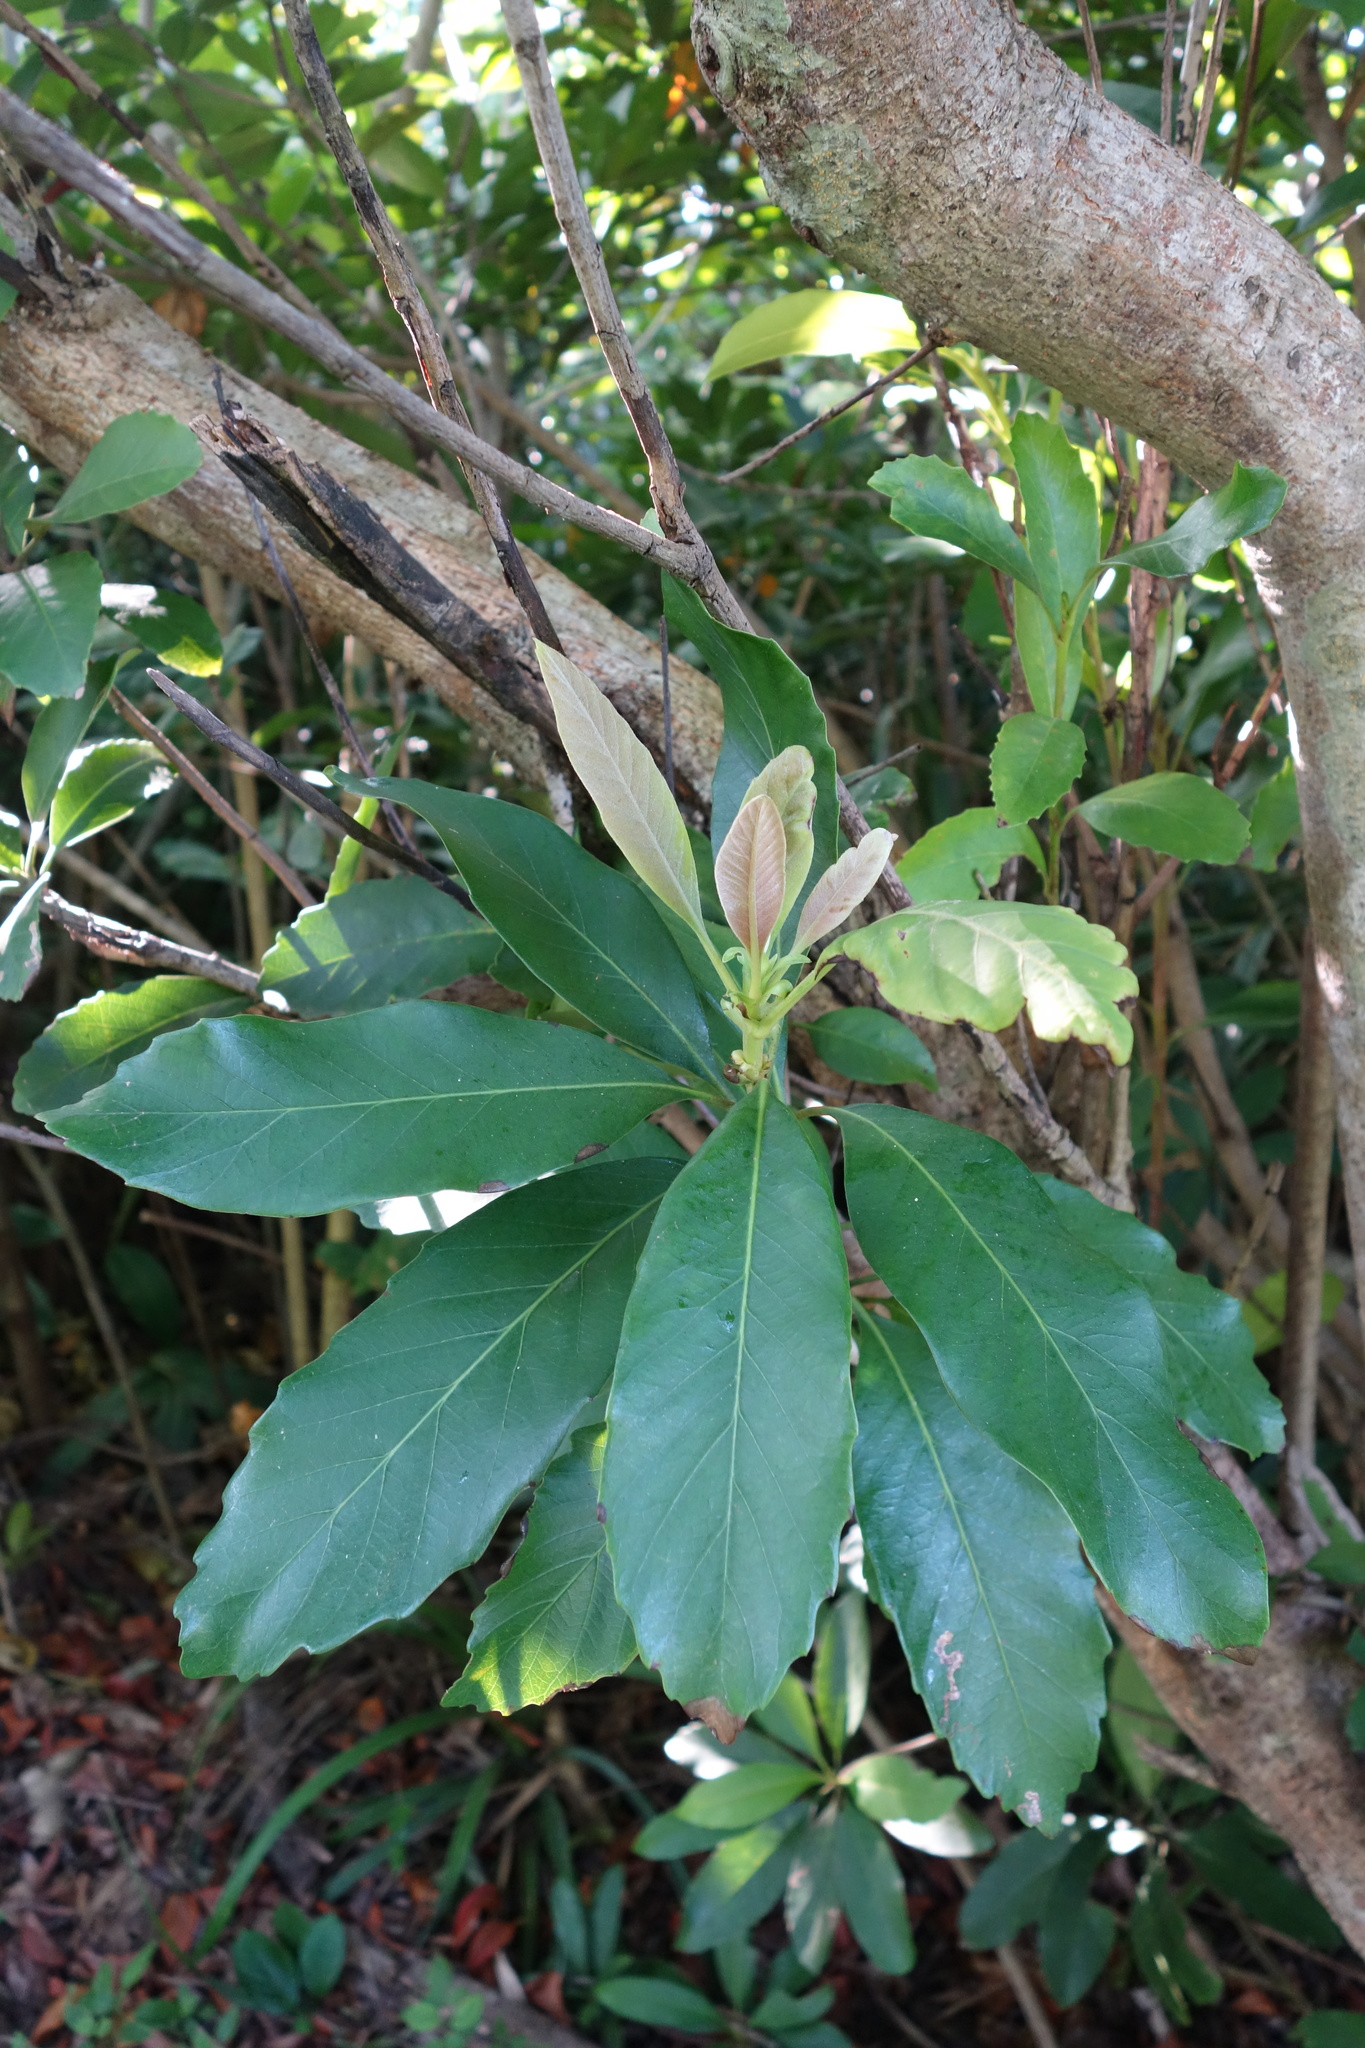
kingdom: Plantae
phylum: Tracheophyta
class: Magnoliopsida
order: Rosales
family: Rosaceae
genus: Rhaphiolepis
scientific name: Rhaphiolepis deflexa
